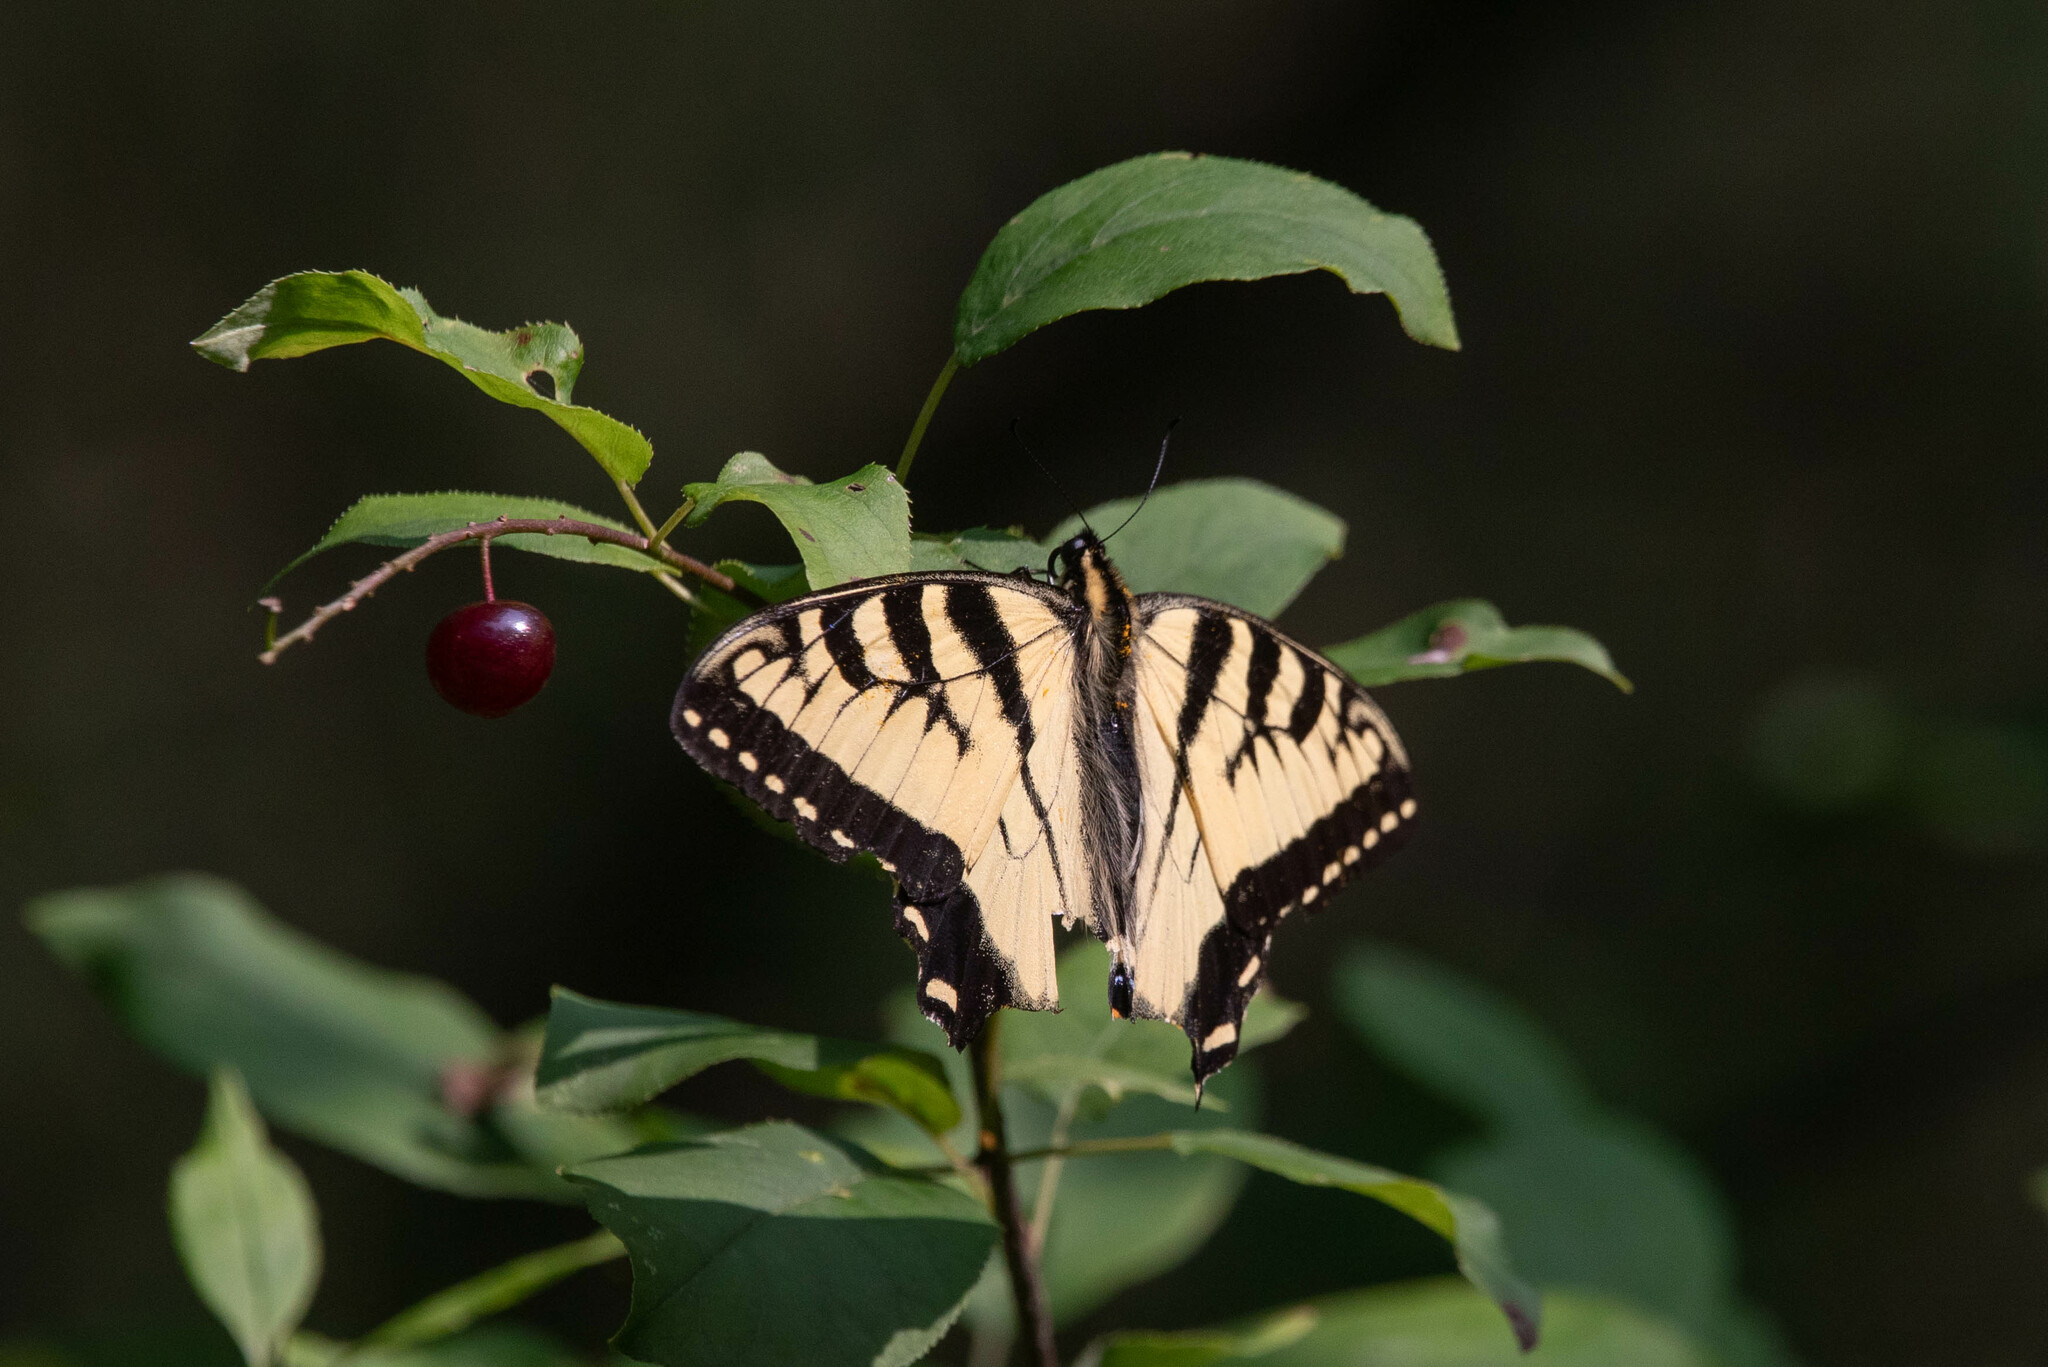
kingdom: Animalia
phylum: Arthropoda
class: Insecta
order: Lepidoptera
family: Papilionidae
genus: Papilio
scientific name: Papilio
